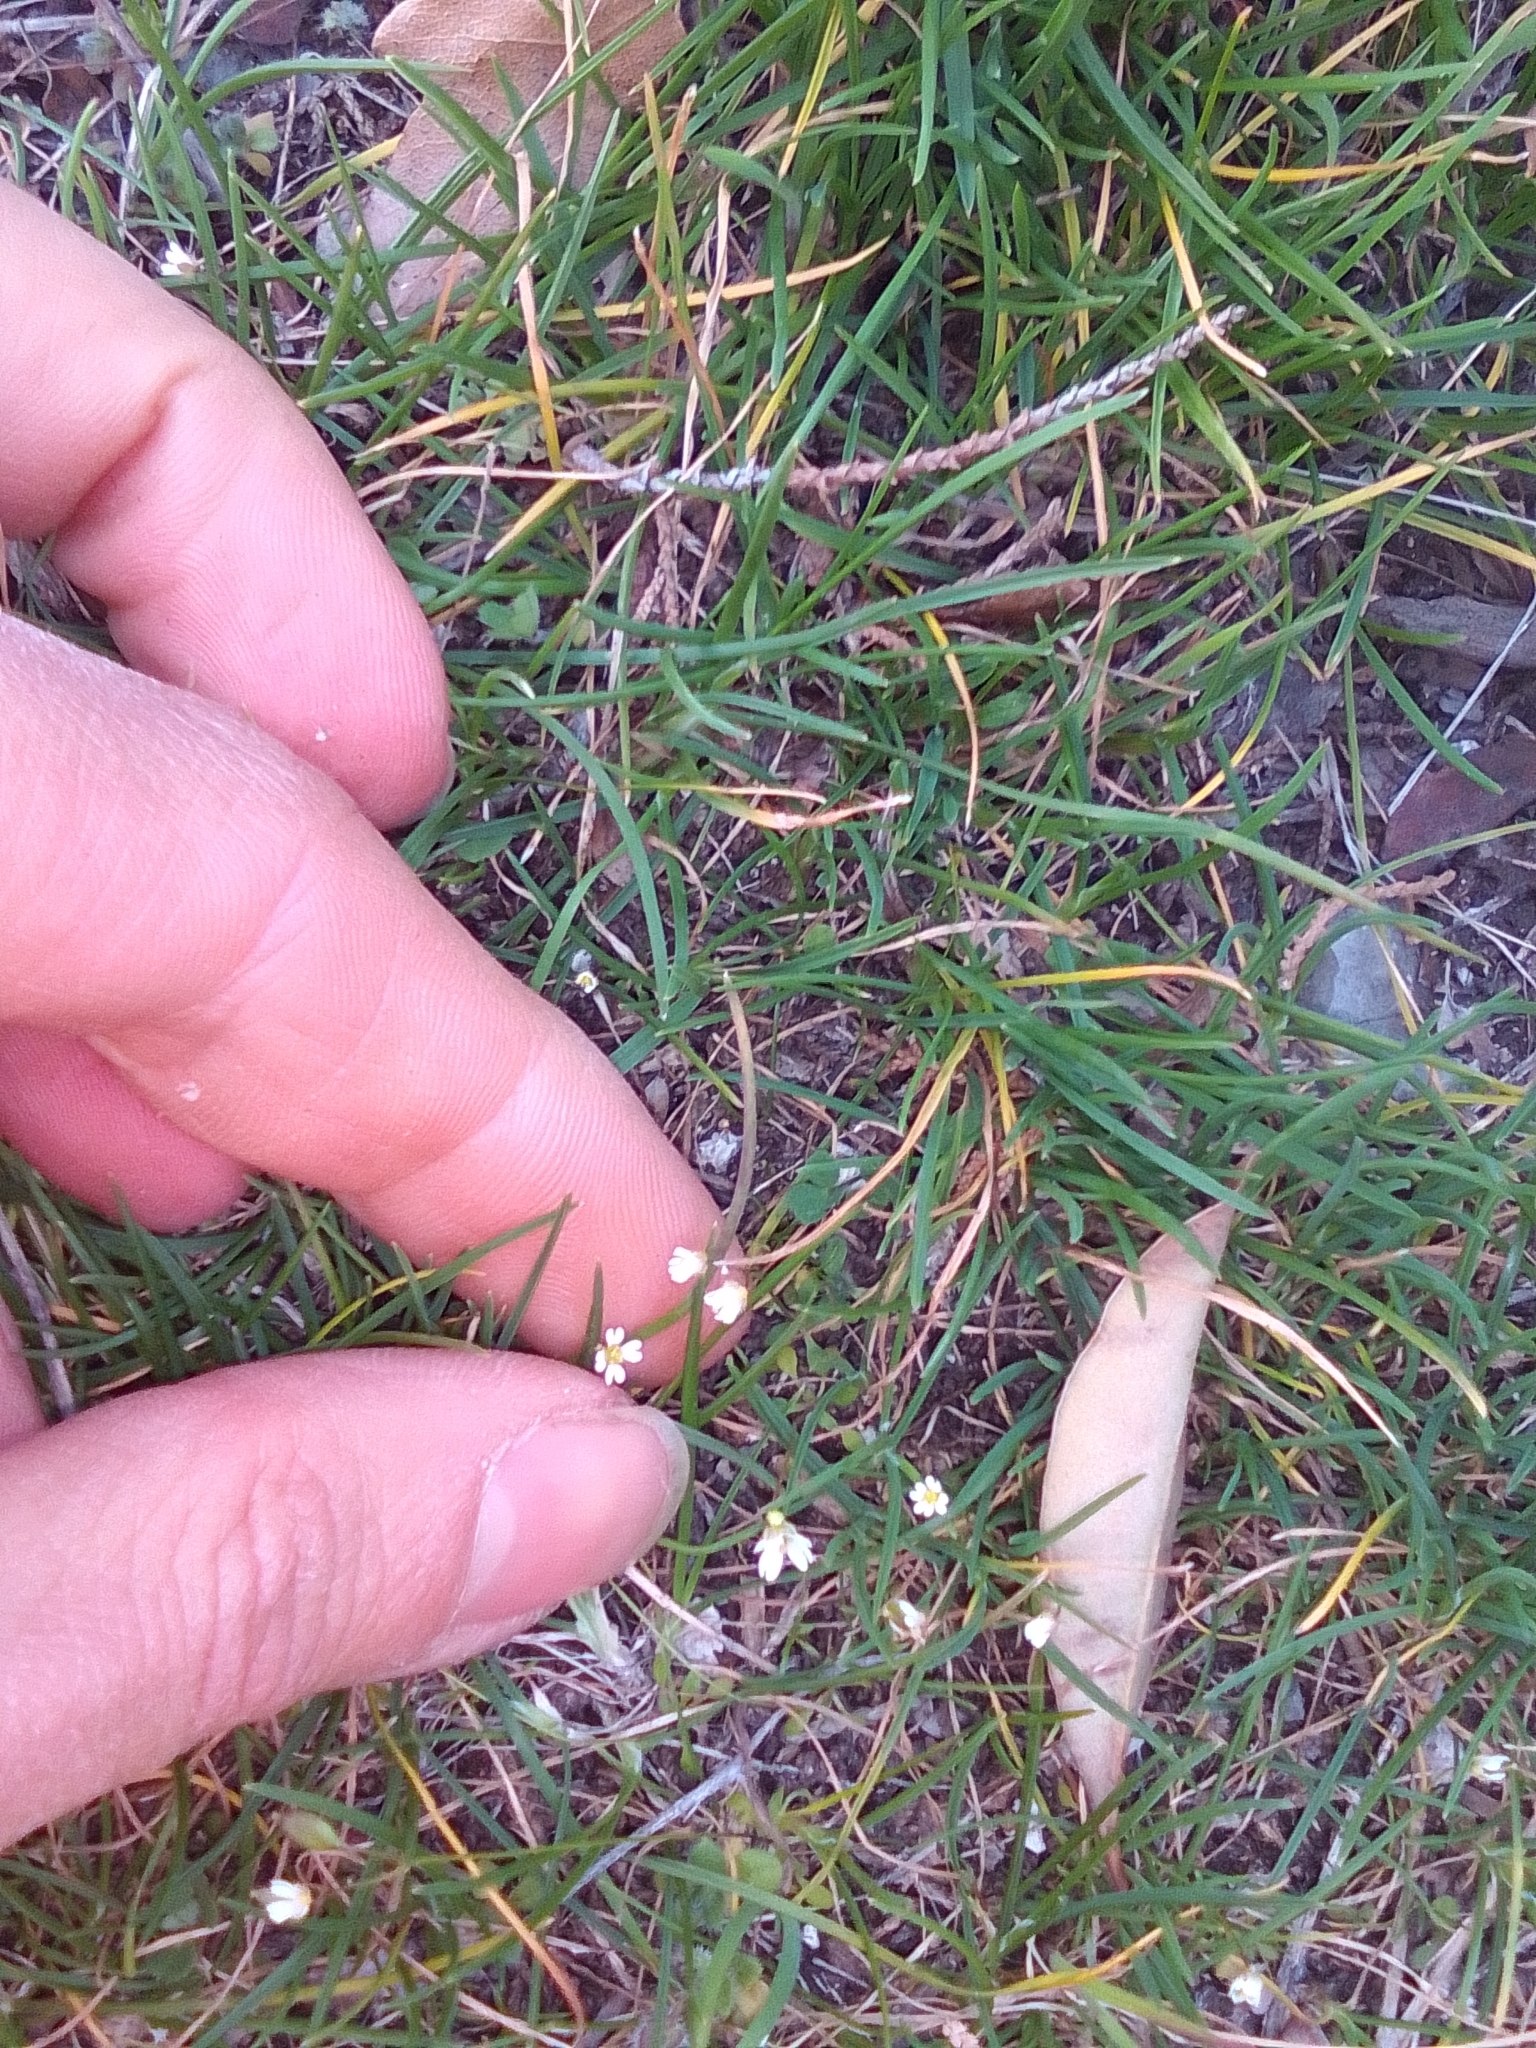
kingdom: Plantae
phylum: Tracheophyta
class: Magnoliopsida
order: Brassicales
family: Brassicaceae
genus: Draba
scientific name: Draba verna
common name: Spring draba
